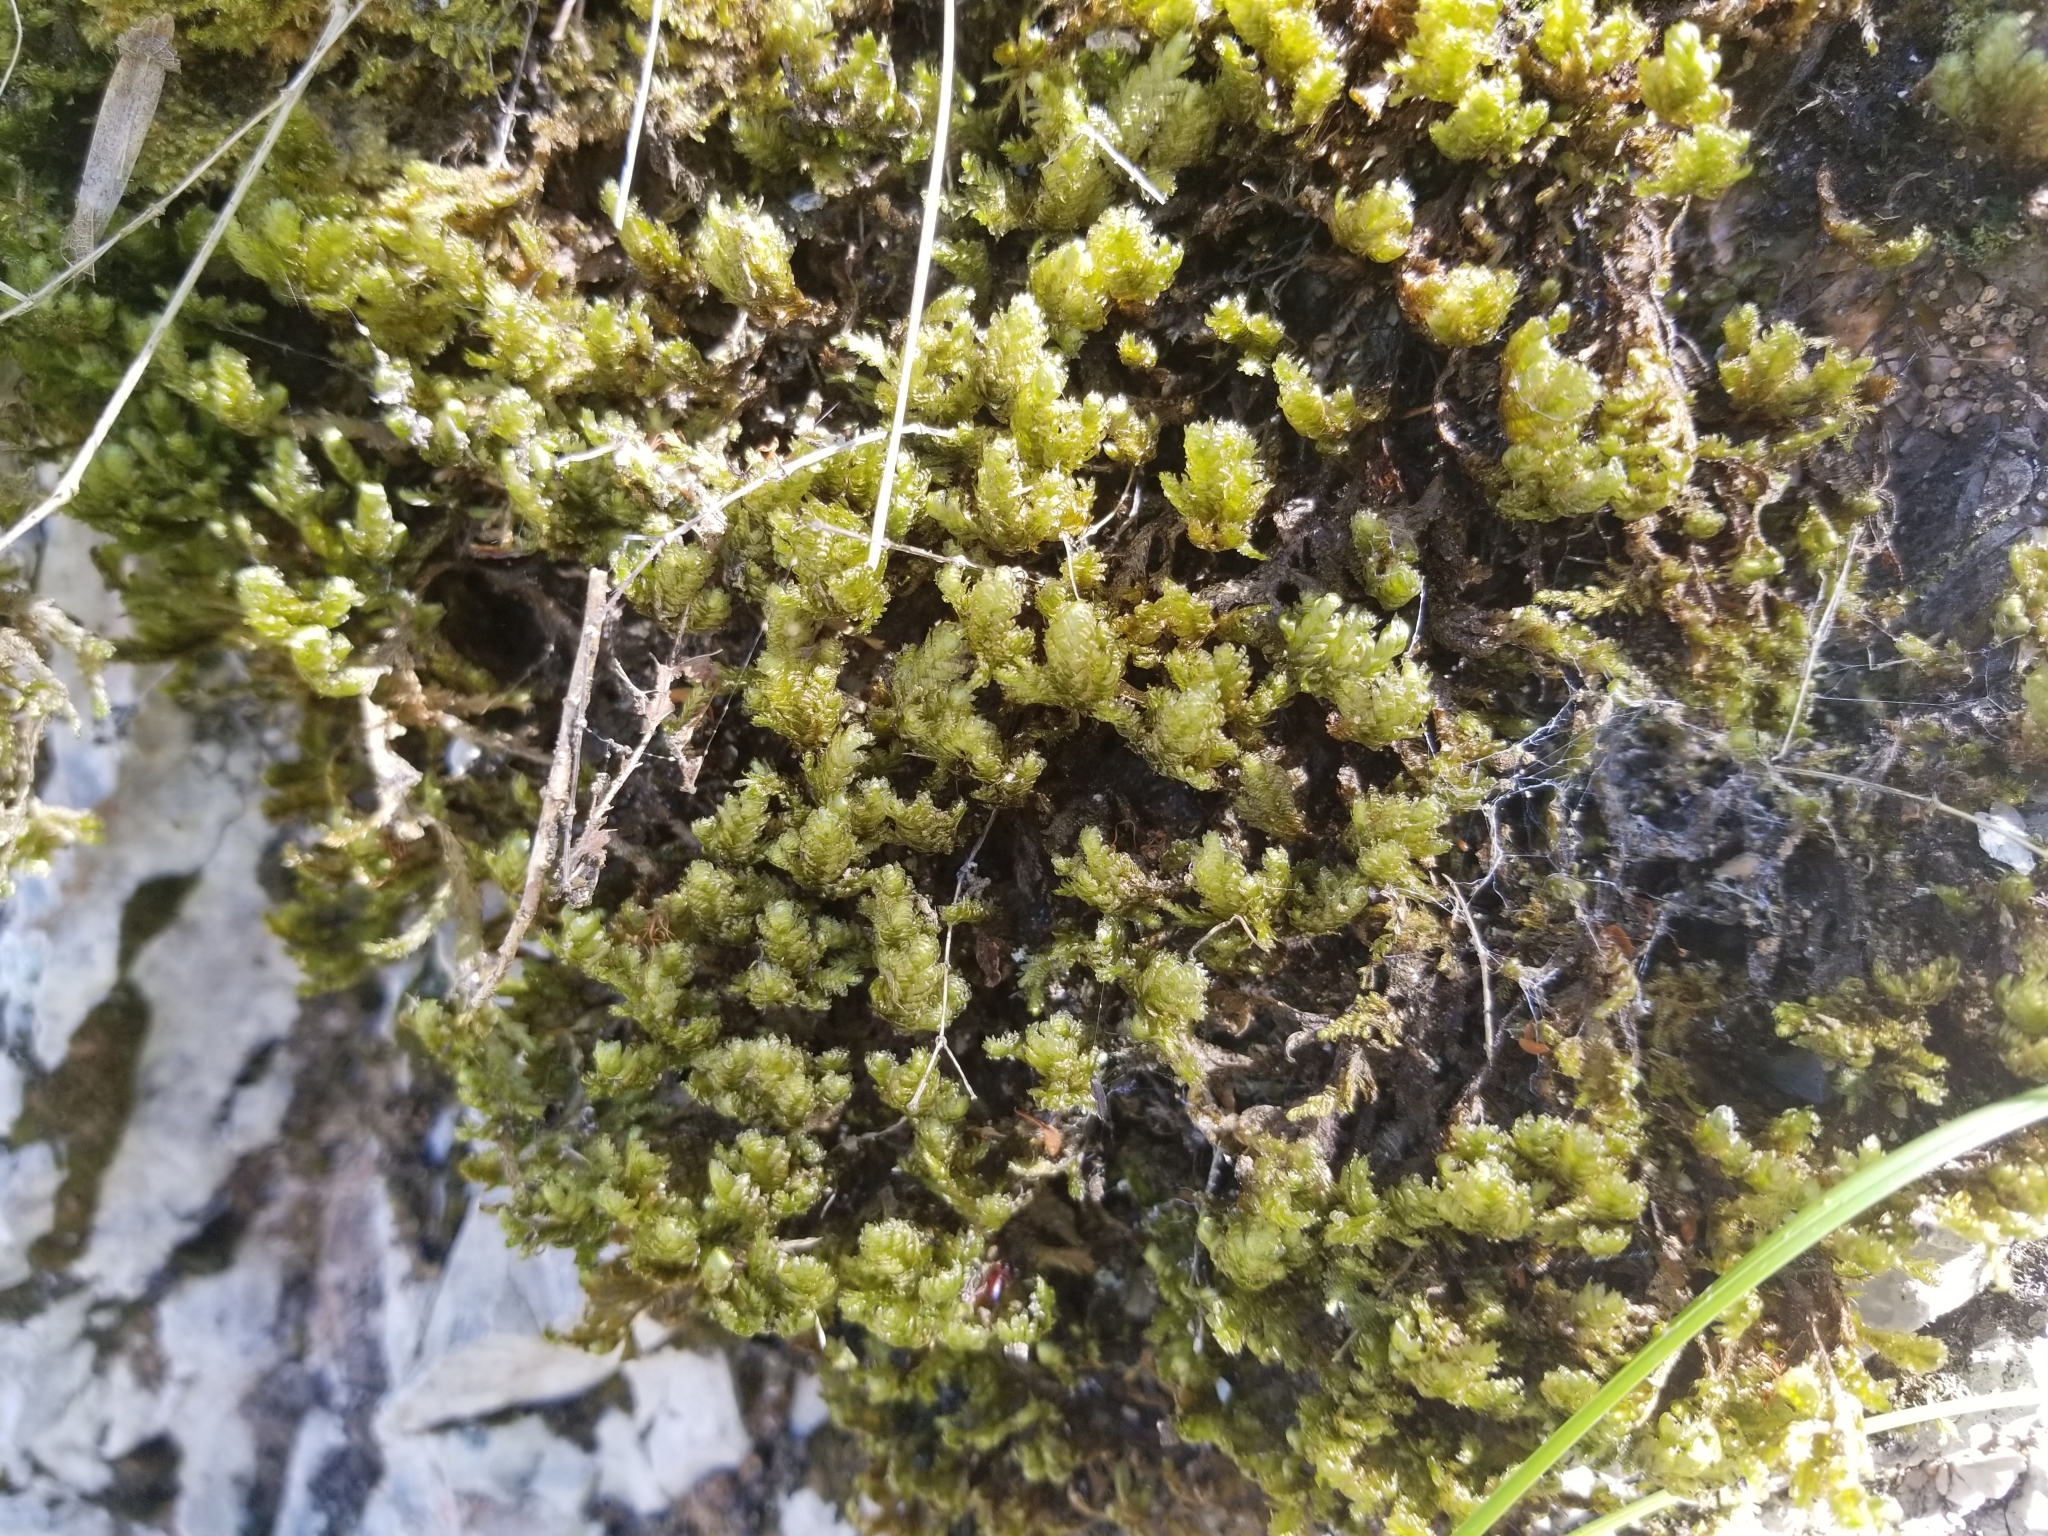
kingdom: Plantae
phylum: Bryophyta
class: Bryopsida
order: Hypnales
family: Neckeraceae
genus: Exsertotheca
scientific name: Exsertotheca crispa
